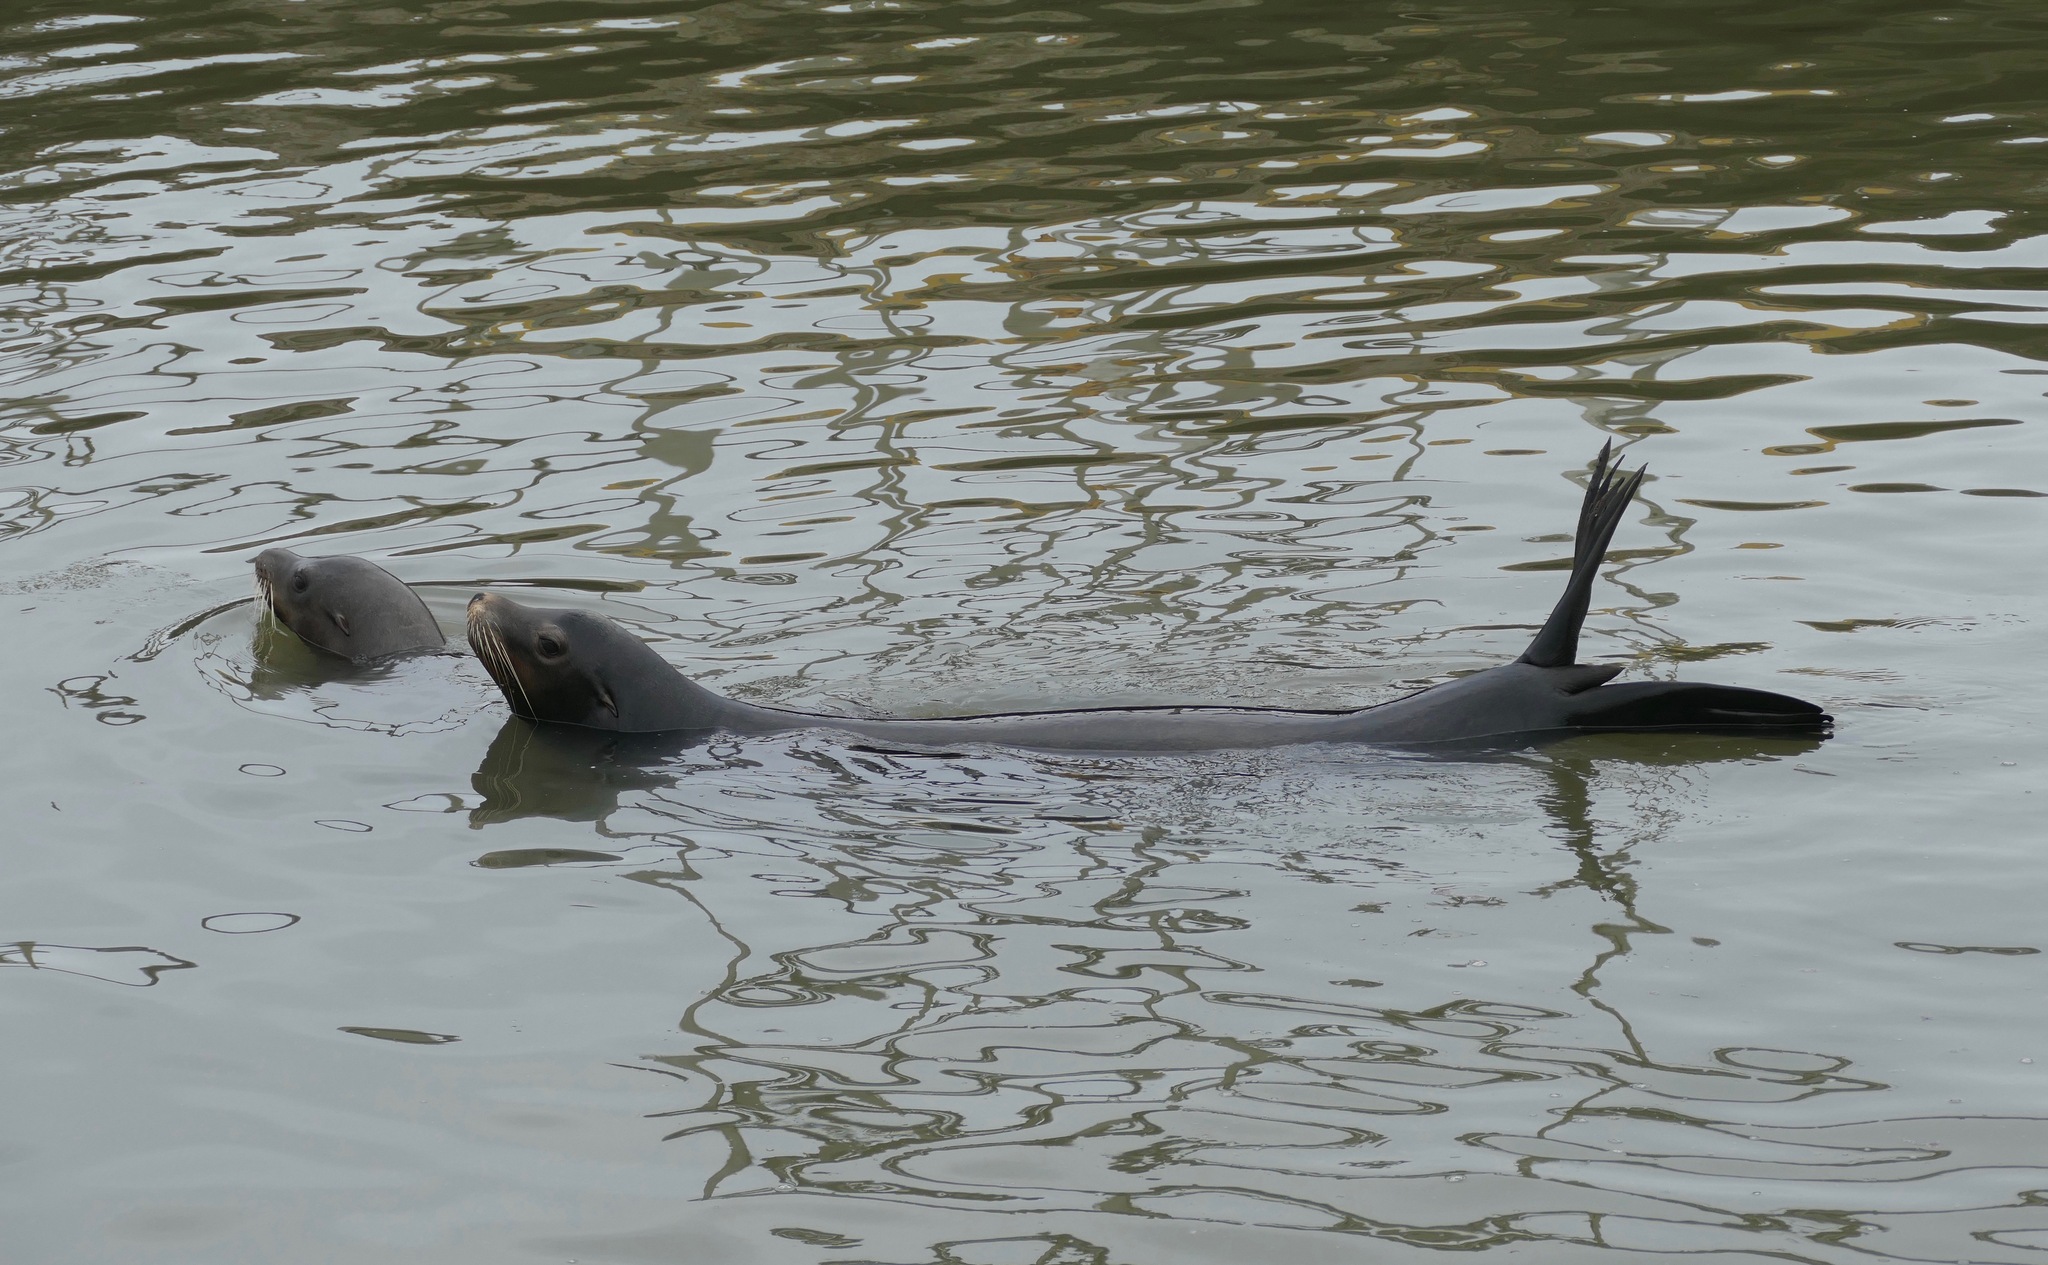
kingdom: Animalia
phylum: Chordata
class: Mammalia
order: Carnivora
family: Otariidae
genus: Zalophus
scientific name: Zalophus californianus
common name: California sea lion
